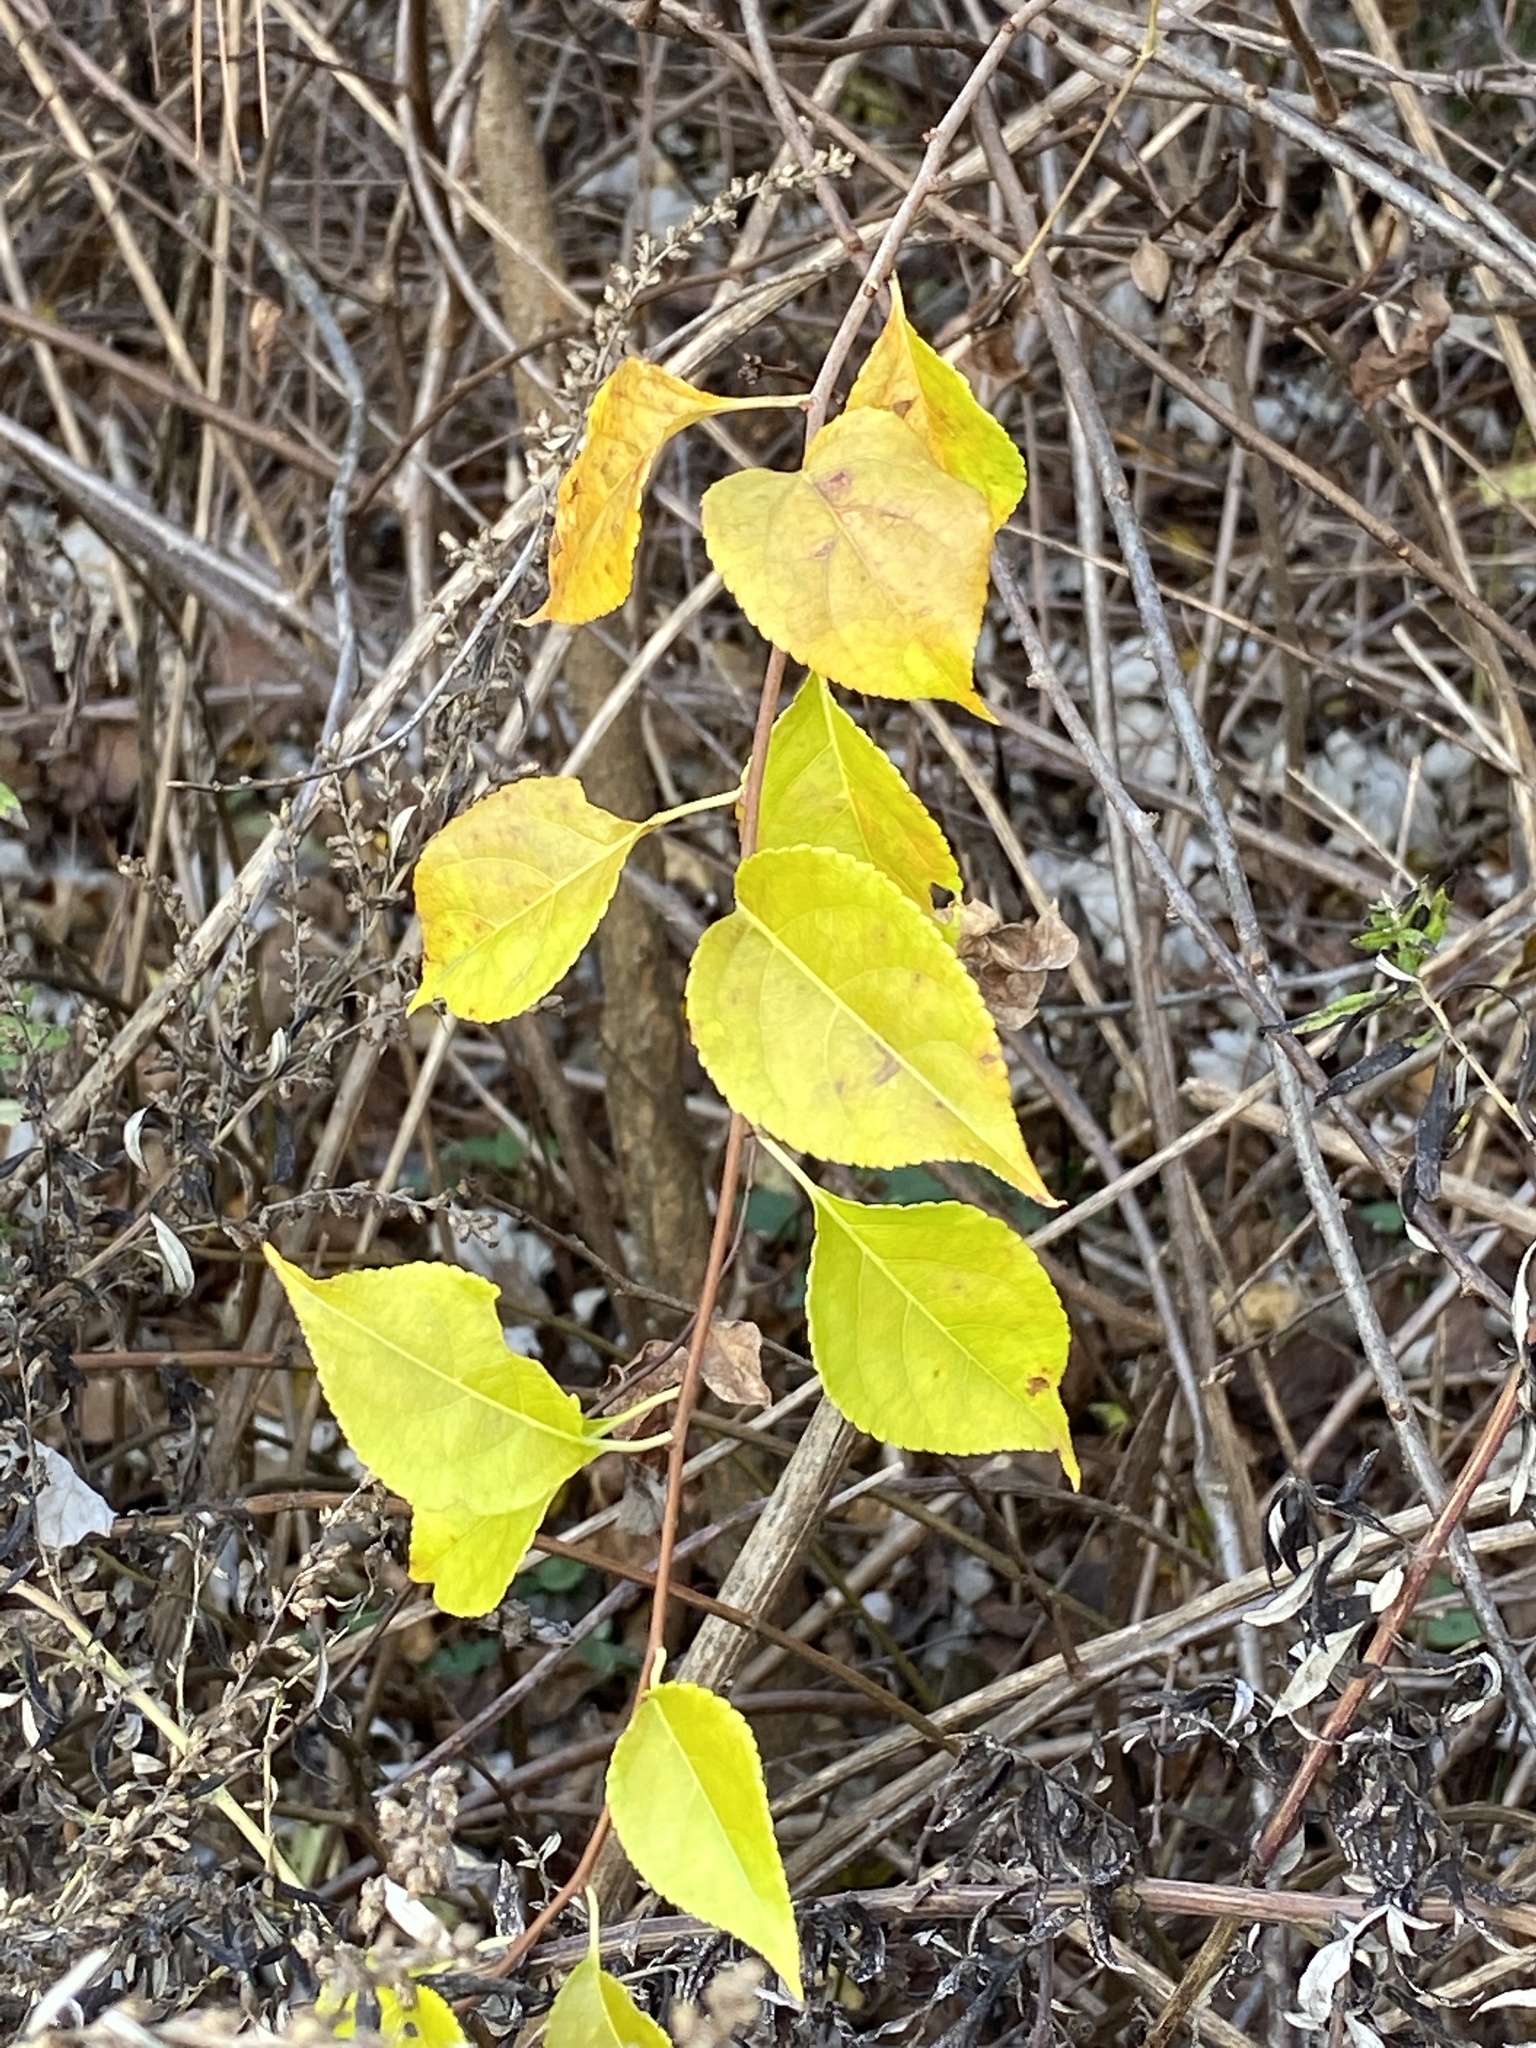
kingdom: Plantae
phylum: Tracheophyta
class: Magnoliopsida
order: Celastrales
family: Celastraceae
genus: Celastrus
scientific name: Celastrus orbiculatus
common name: Oriental bittersweet
